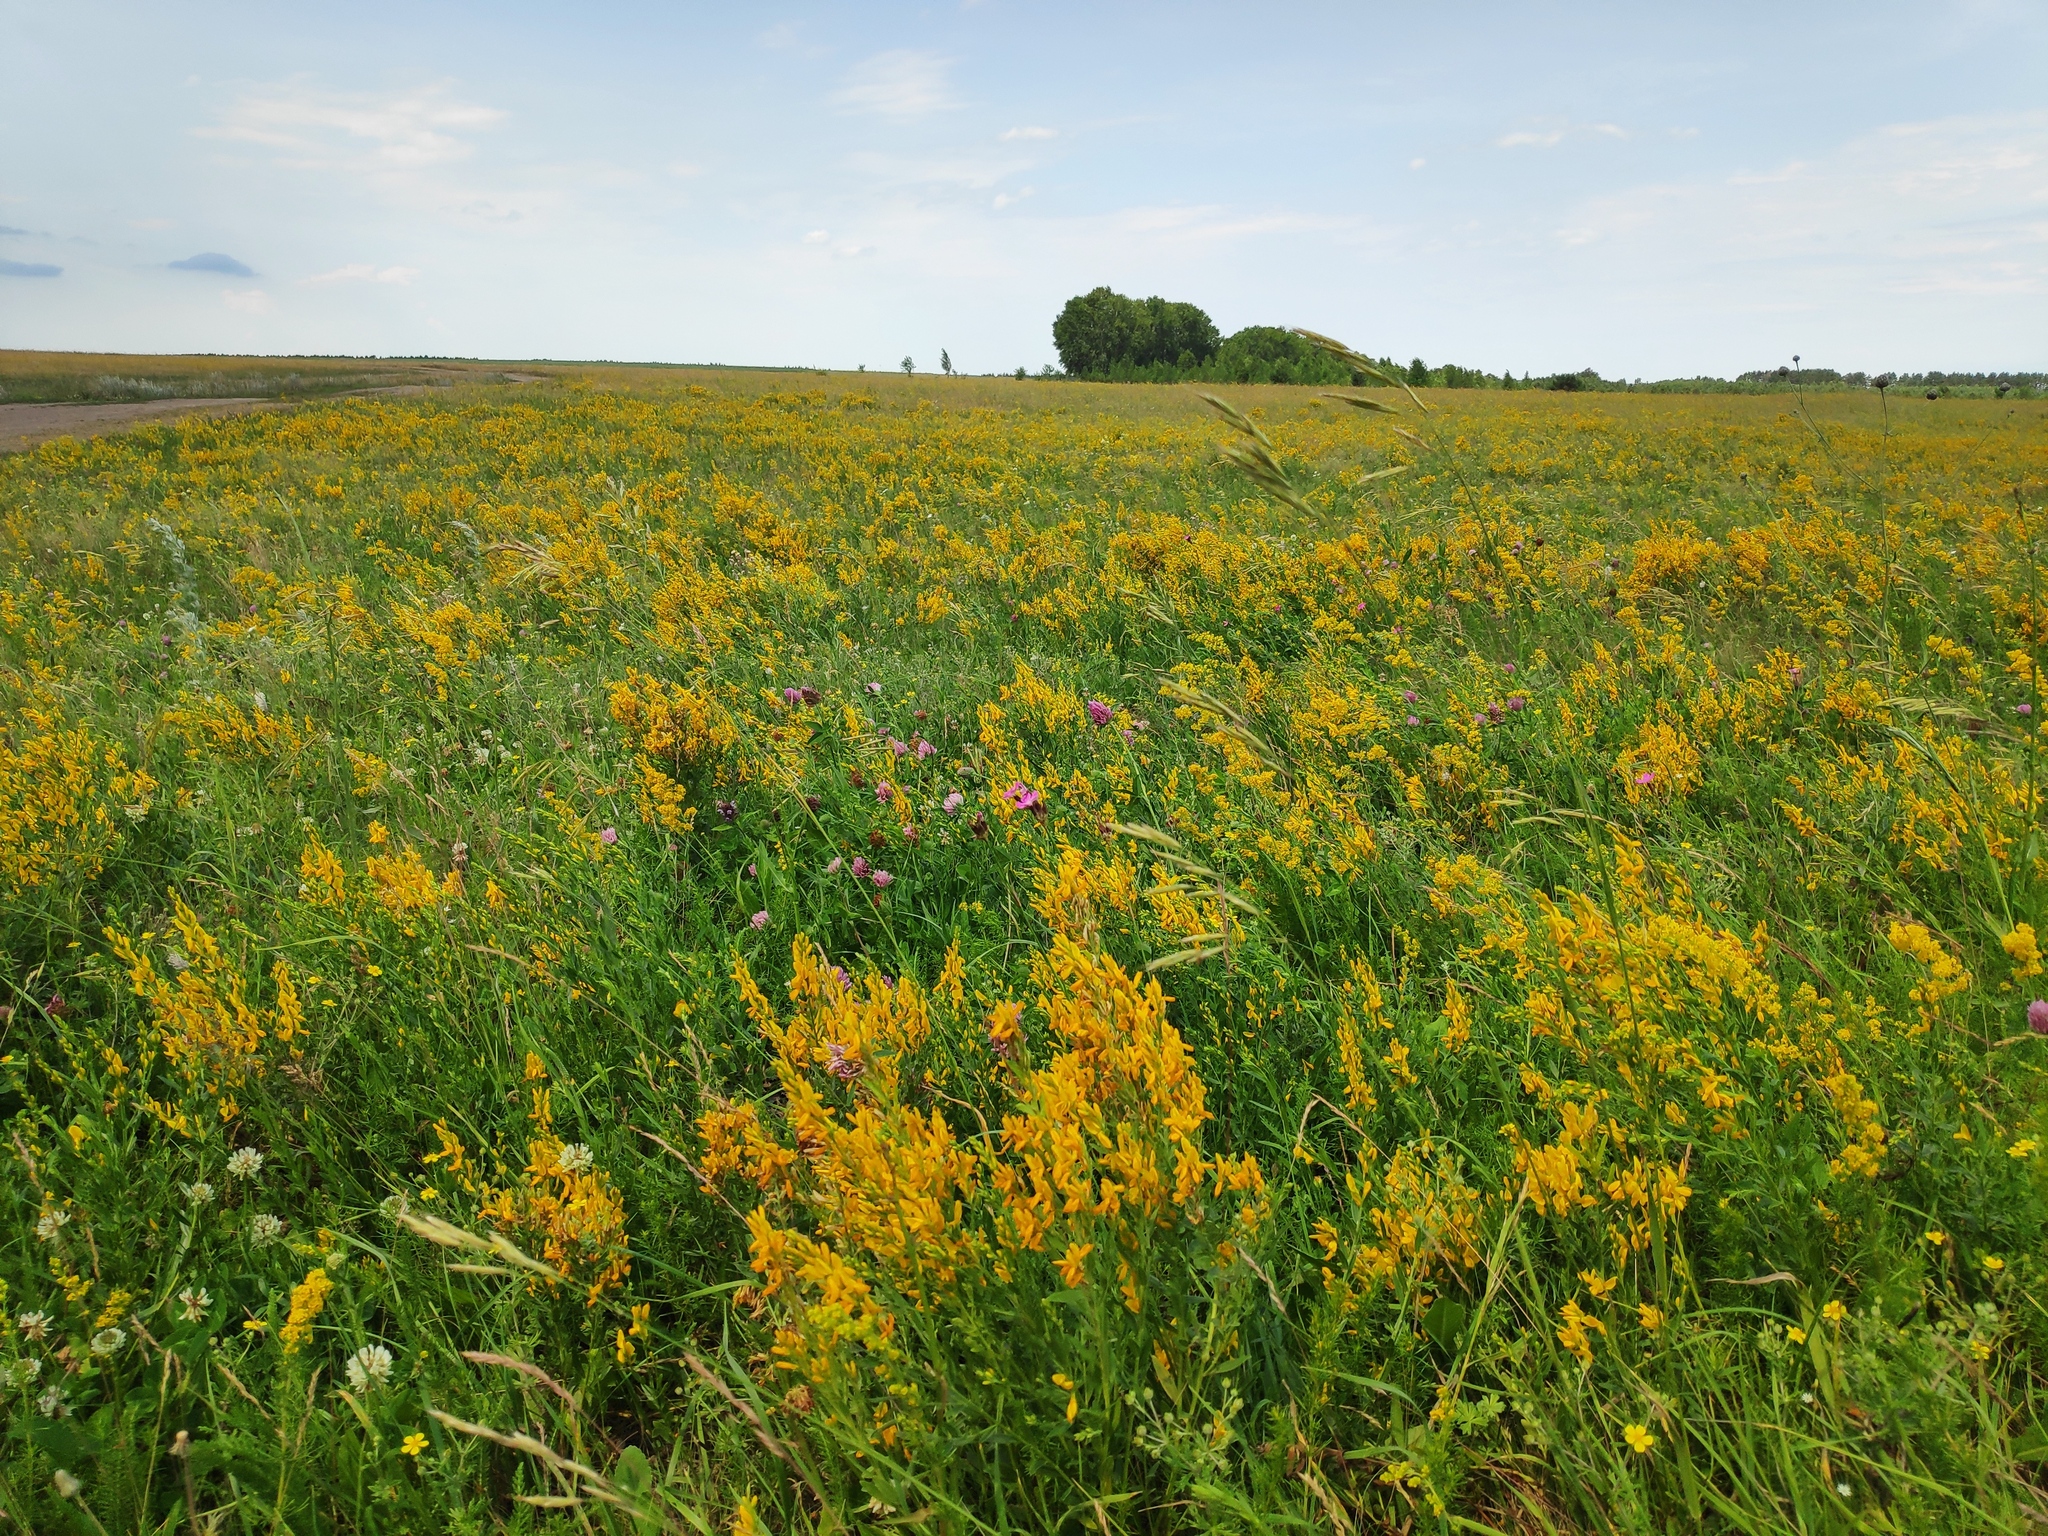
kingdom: Plantae
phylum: Tracheophyta
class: Magnoliopsida
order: Fabales
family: Fabaceae
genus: Genista
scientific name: Genista tinctoria
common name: Dyer's greenweed
